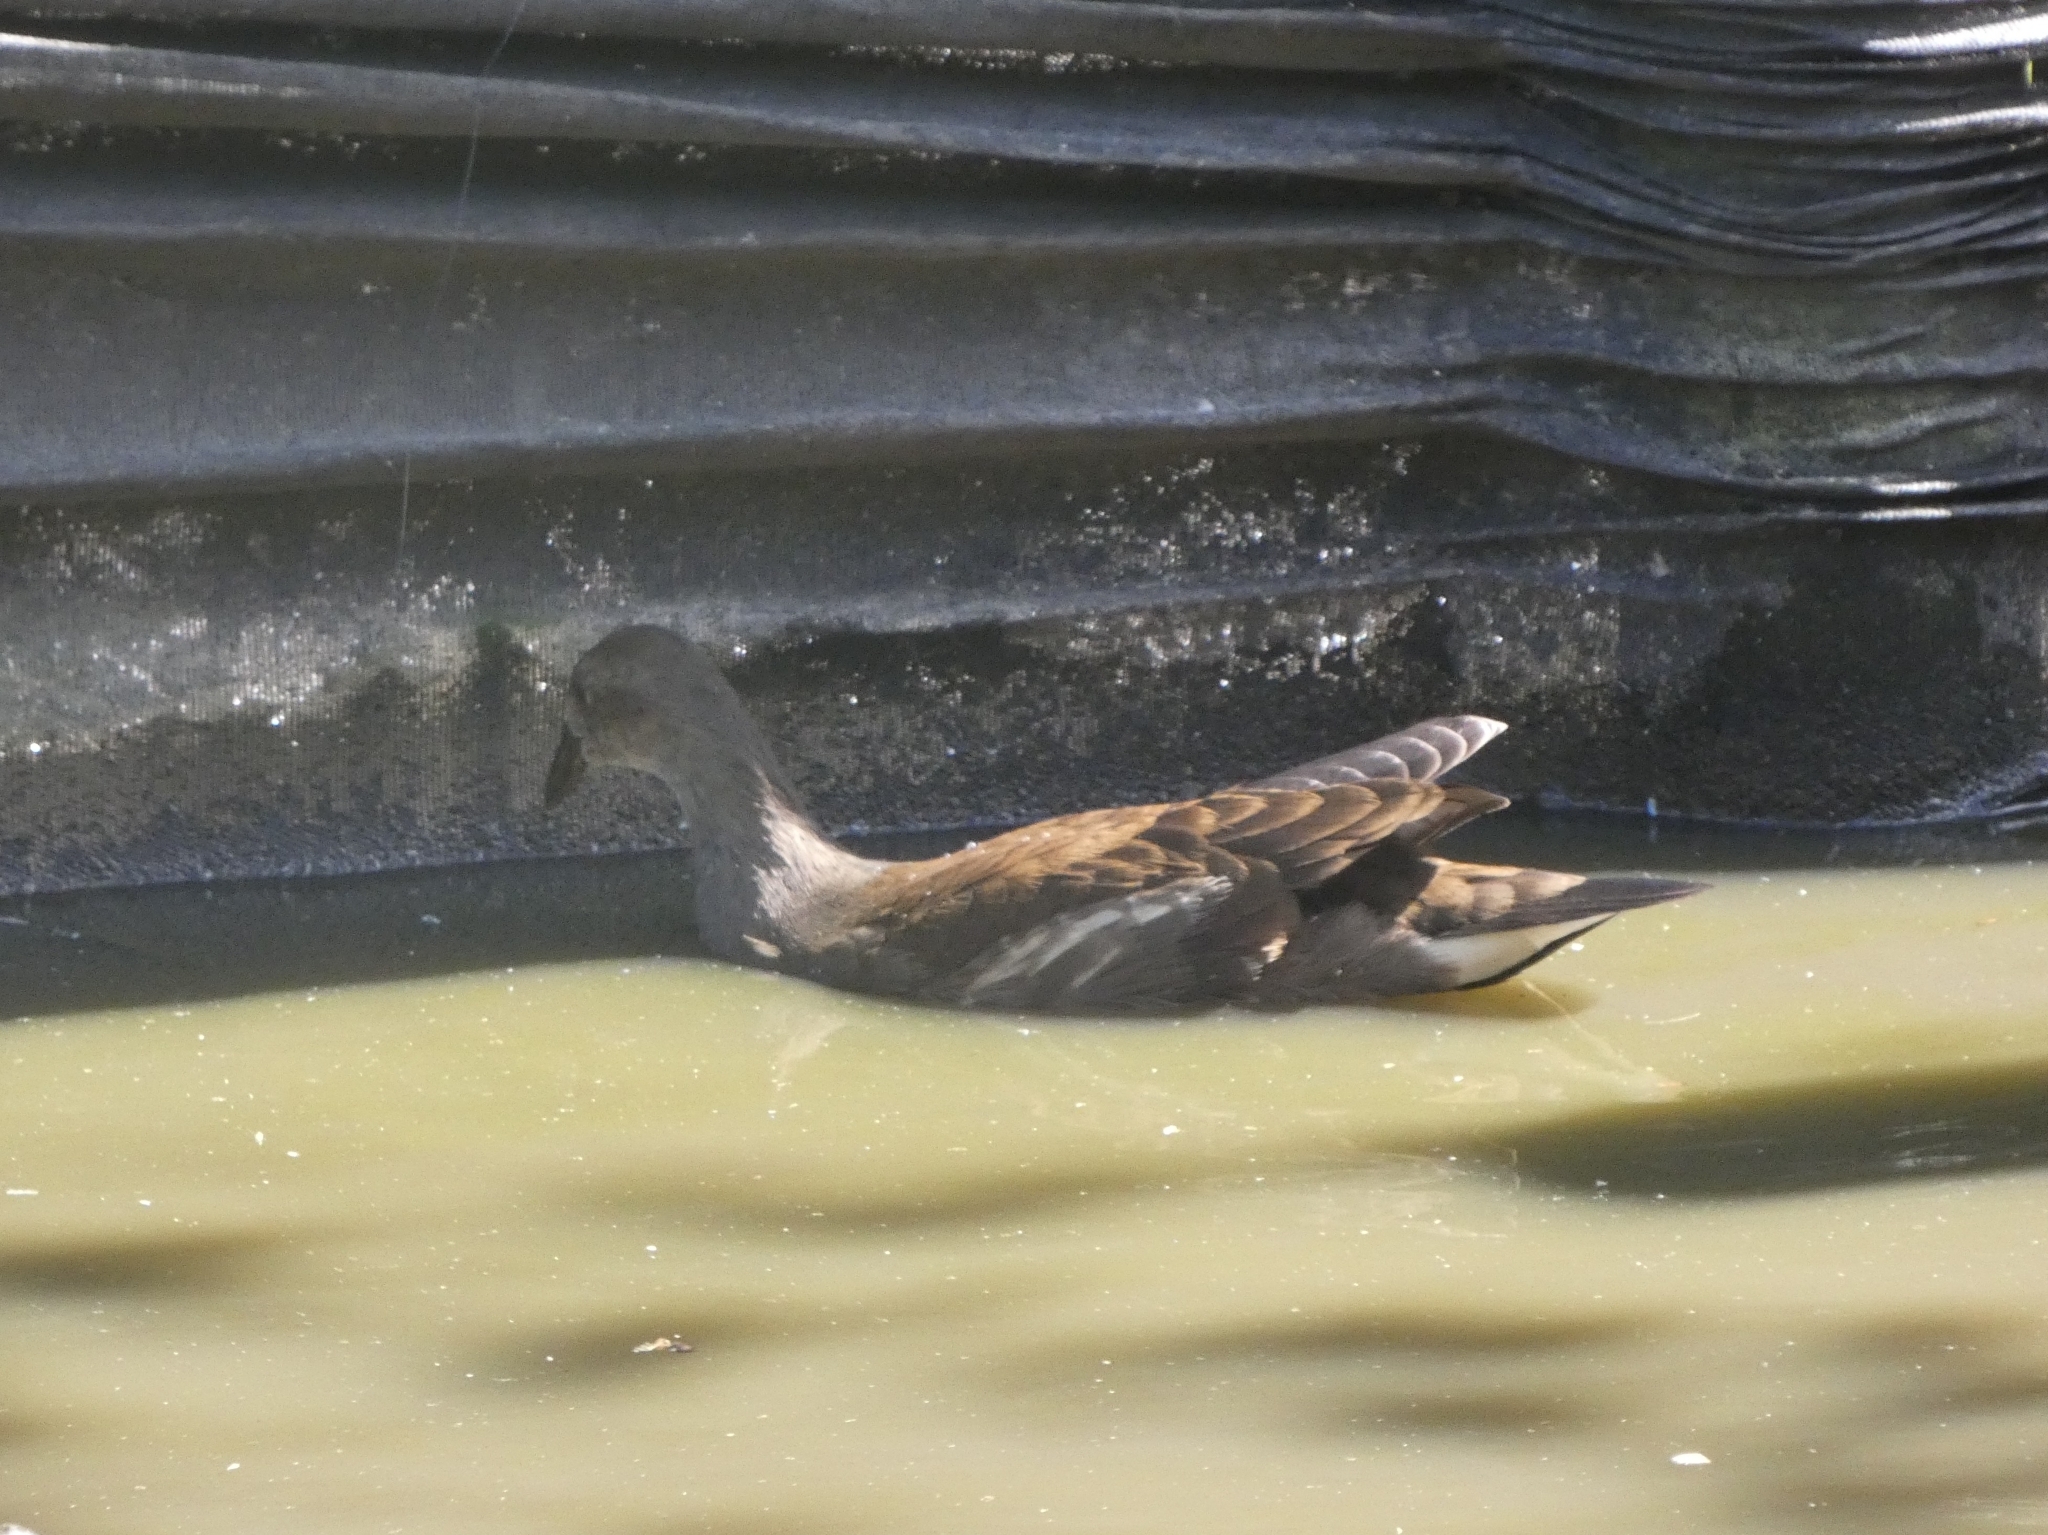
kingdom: Animalia
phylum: Chordata
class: Aves
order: Gruiformes
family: Rallidae
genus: Gallinula
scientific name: Gallinula chloropus
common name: Common moorhen
